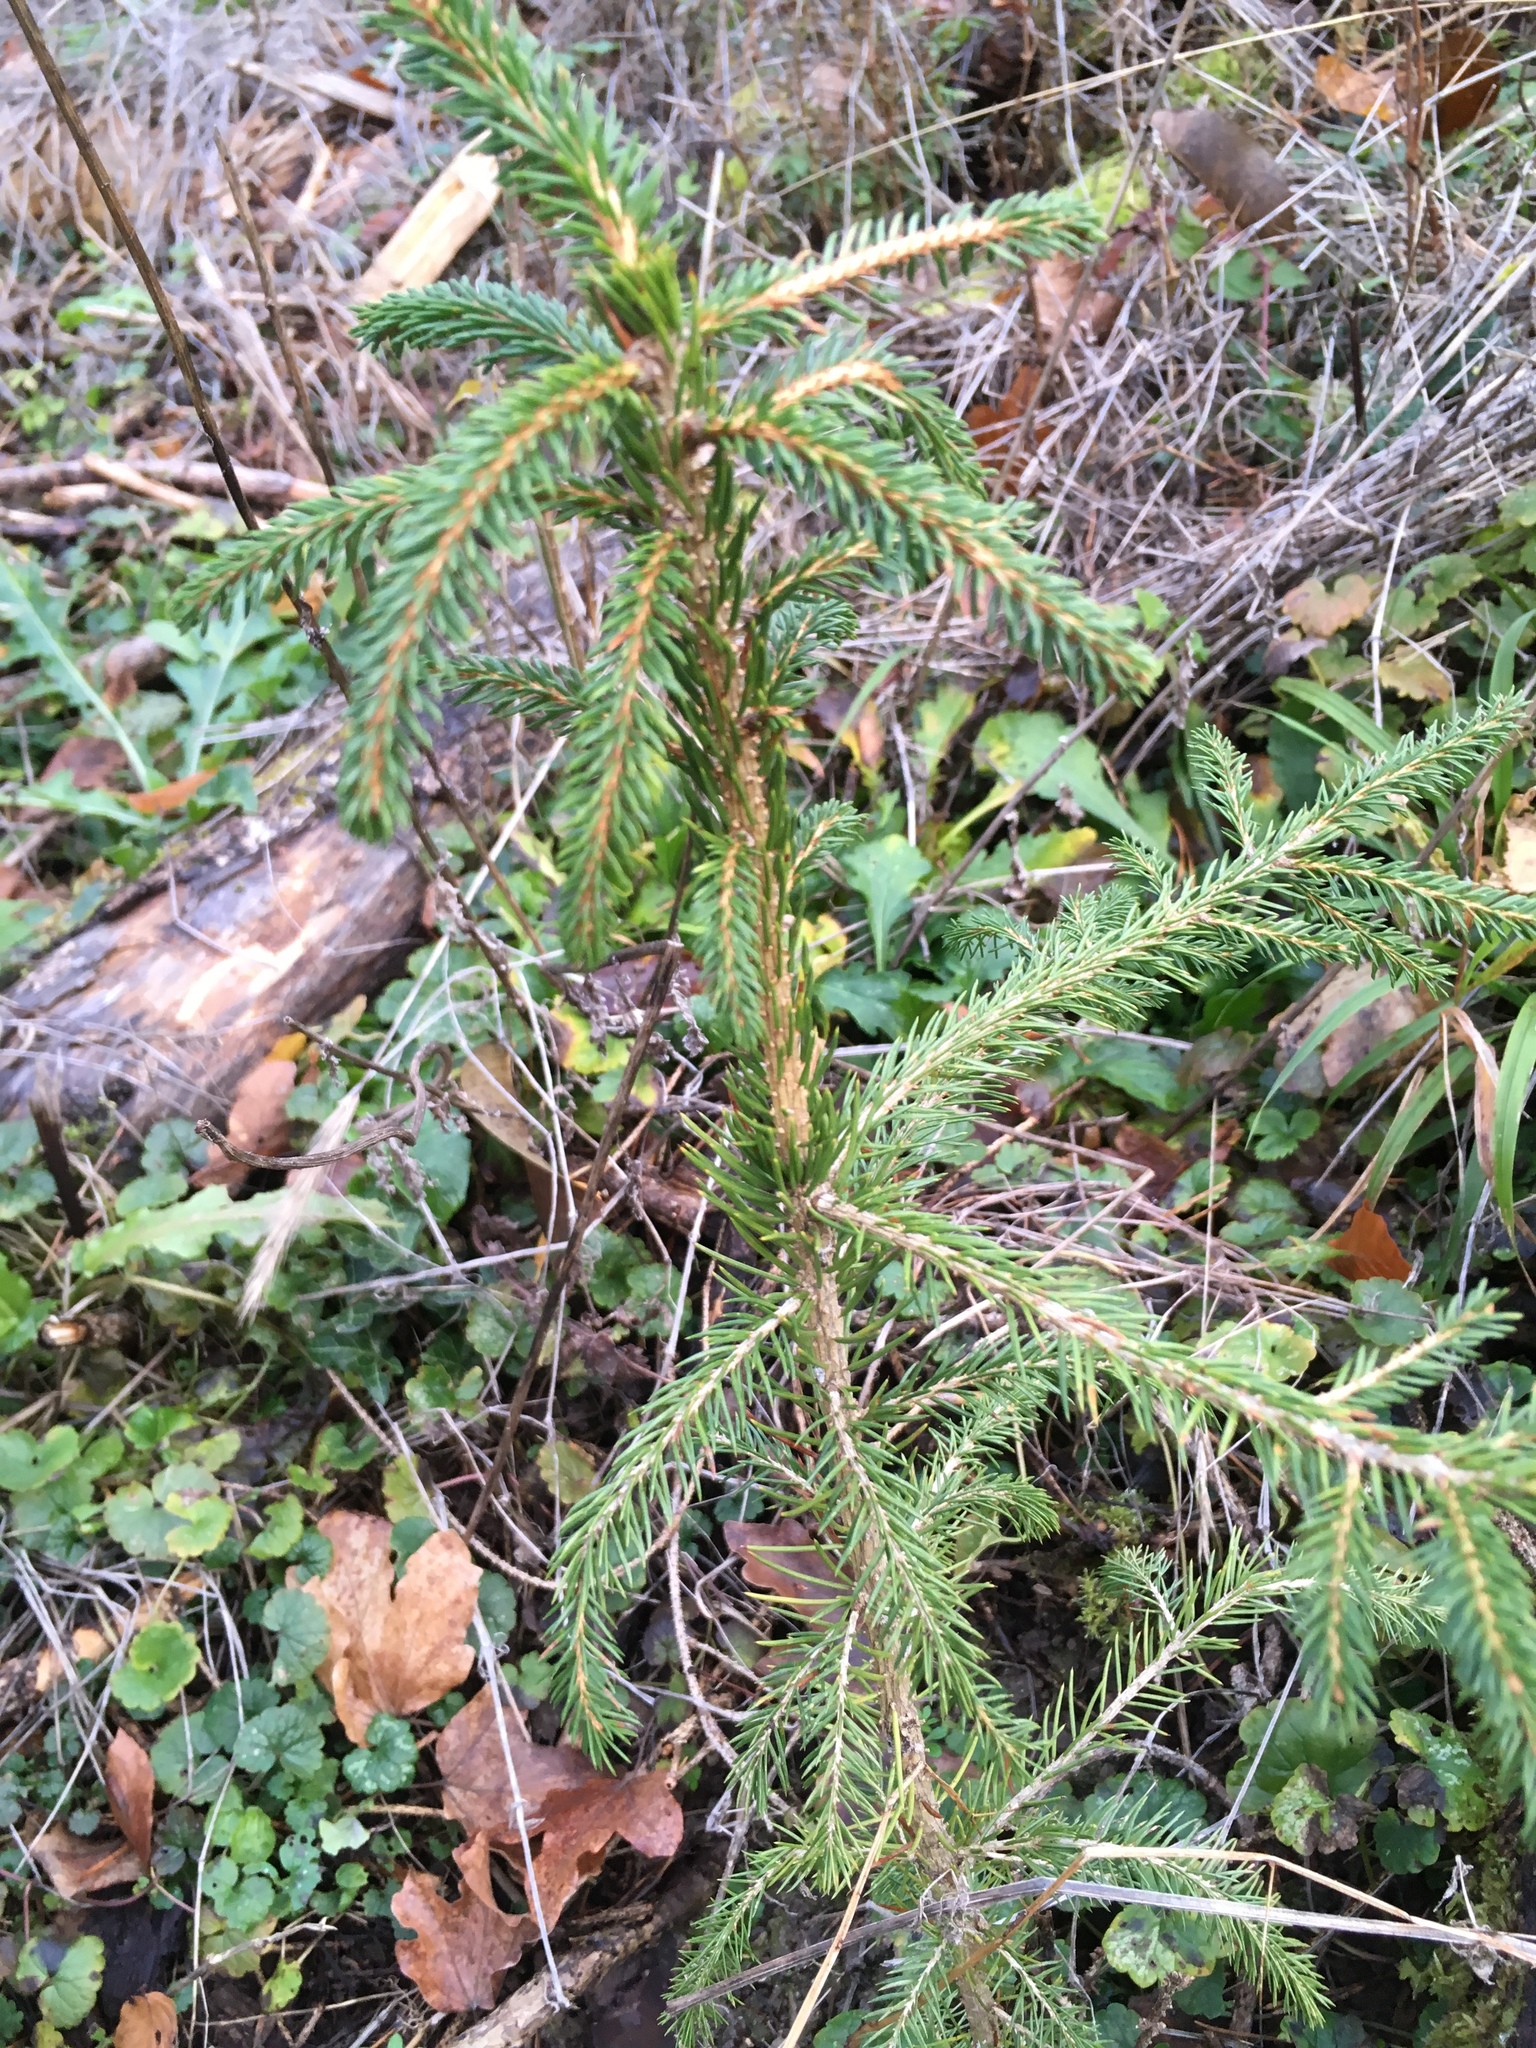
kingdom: Plantae
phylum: Tracheophyta
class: Pinopsida
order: Pinales
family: Pinaceae
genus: Picea
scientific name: Picea abies
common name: Norway spruce
